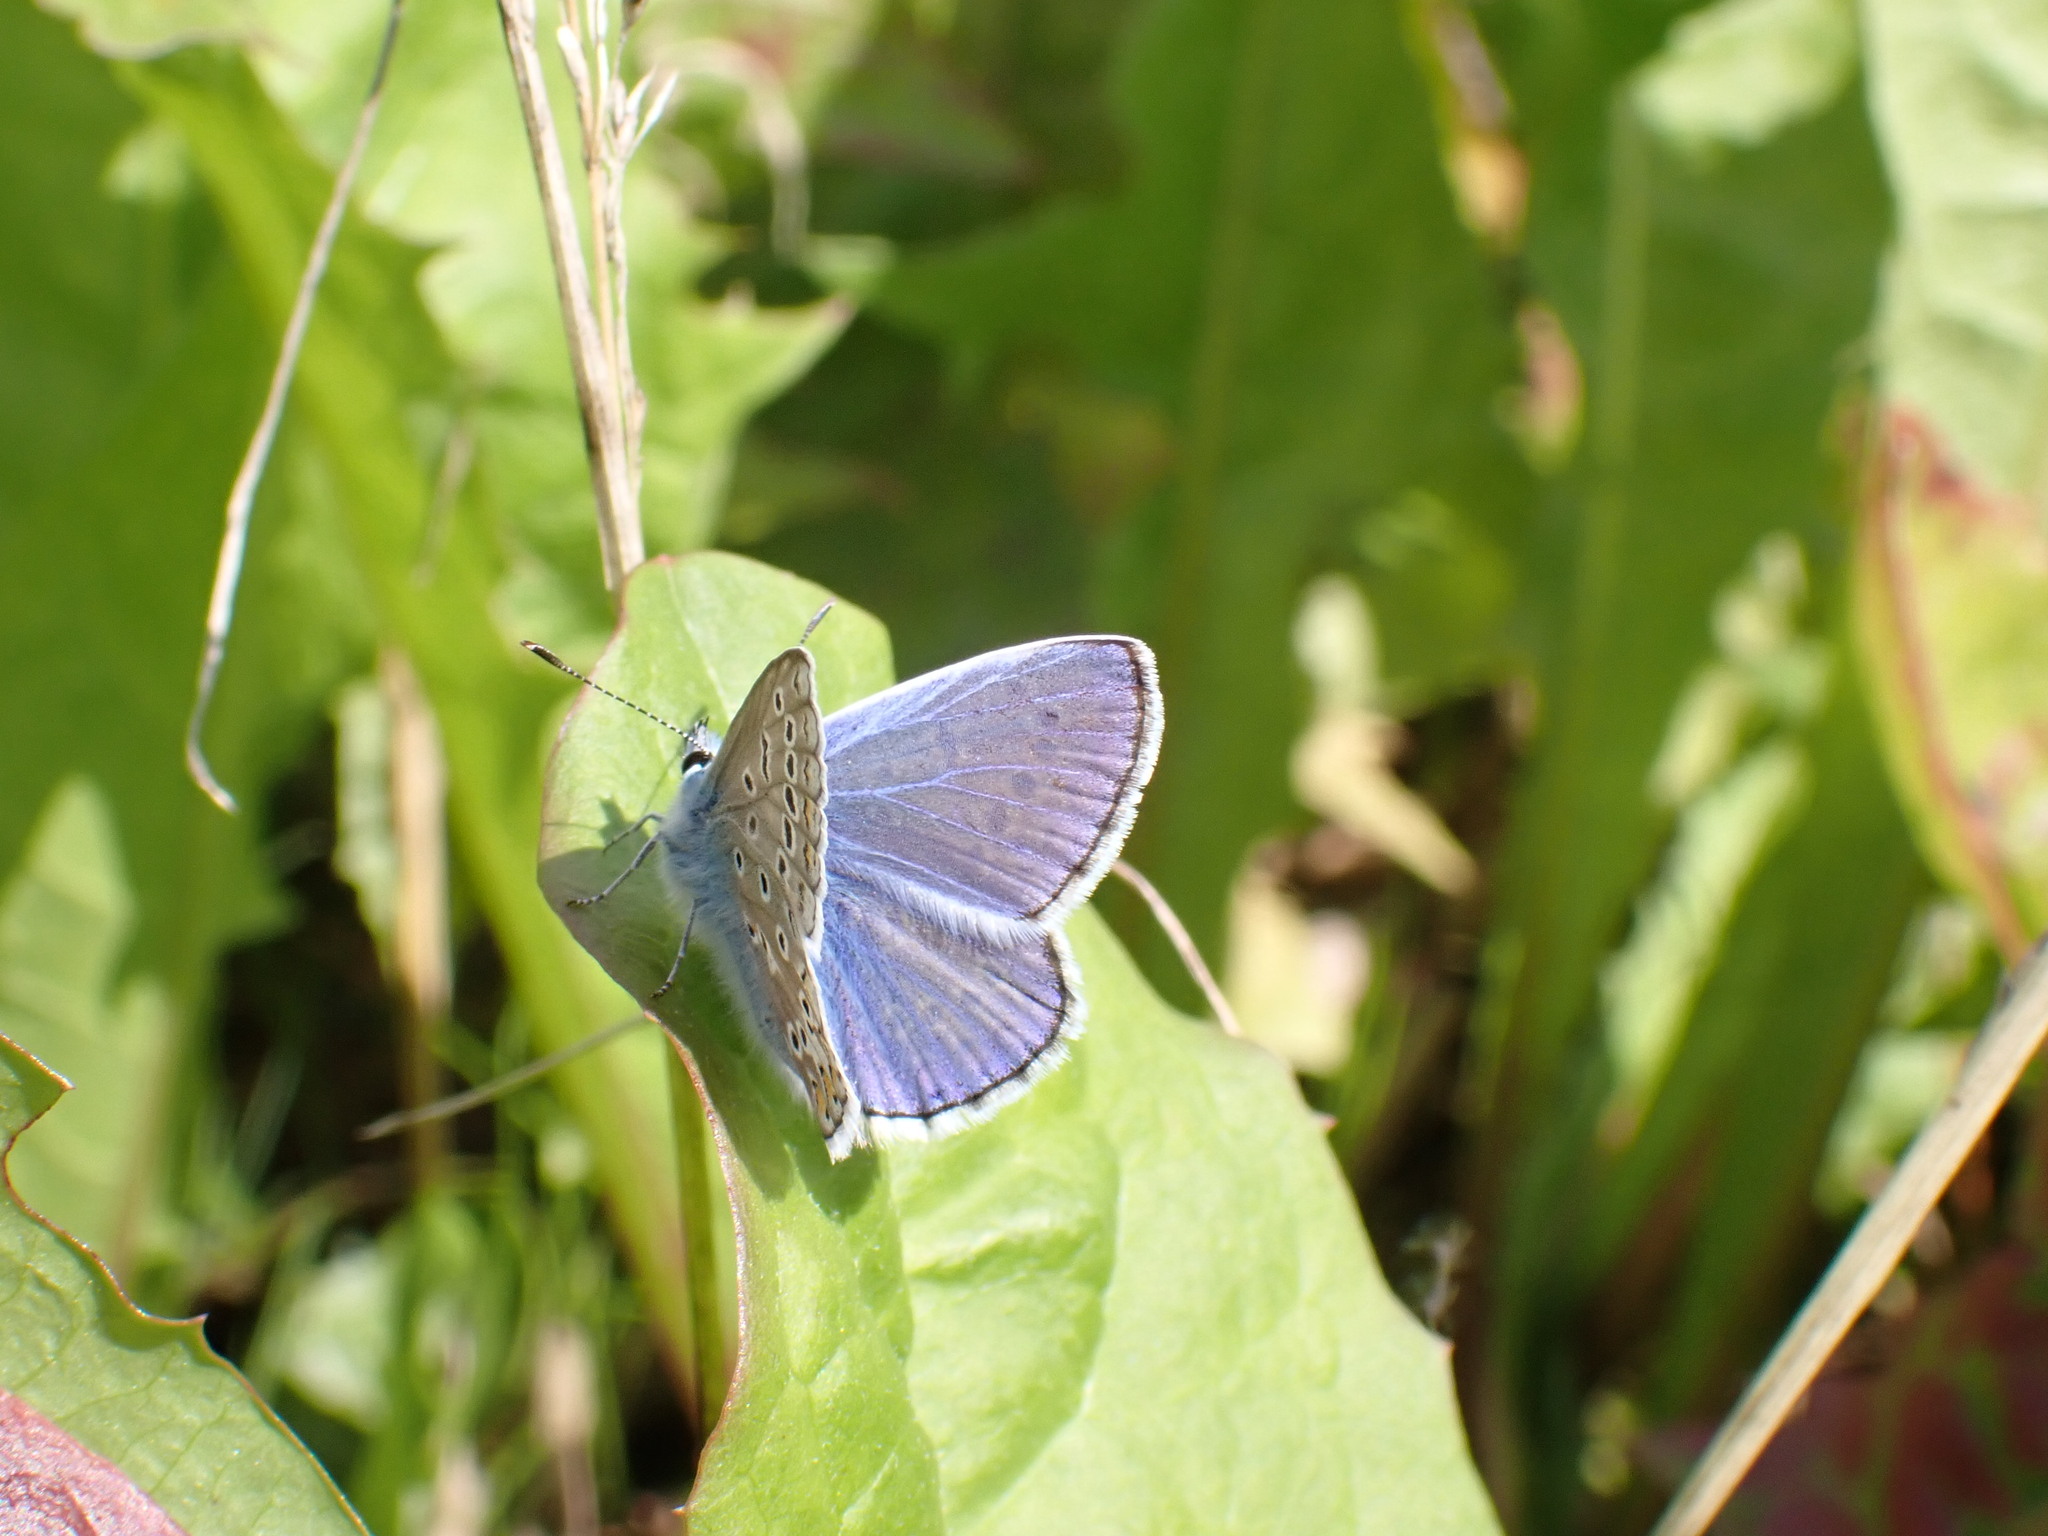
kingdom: Animalia
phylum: Arthropoda
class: Insecta
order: Lepidoptera
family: Lycaenidae
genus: Polyommatus
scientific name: Polyommatus icarus
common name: Common blue
